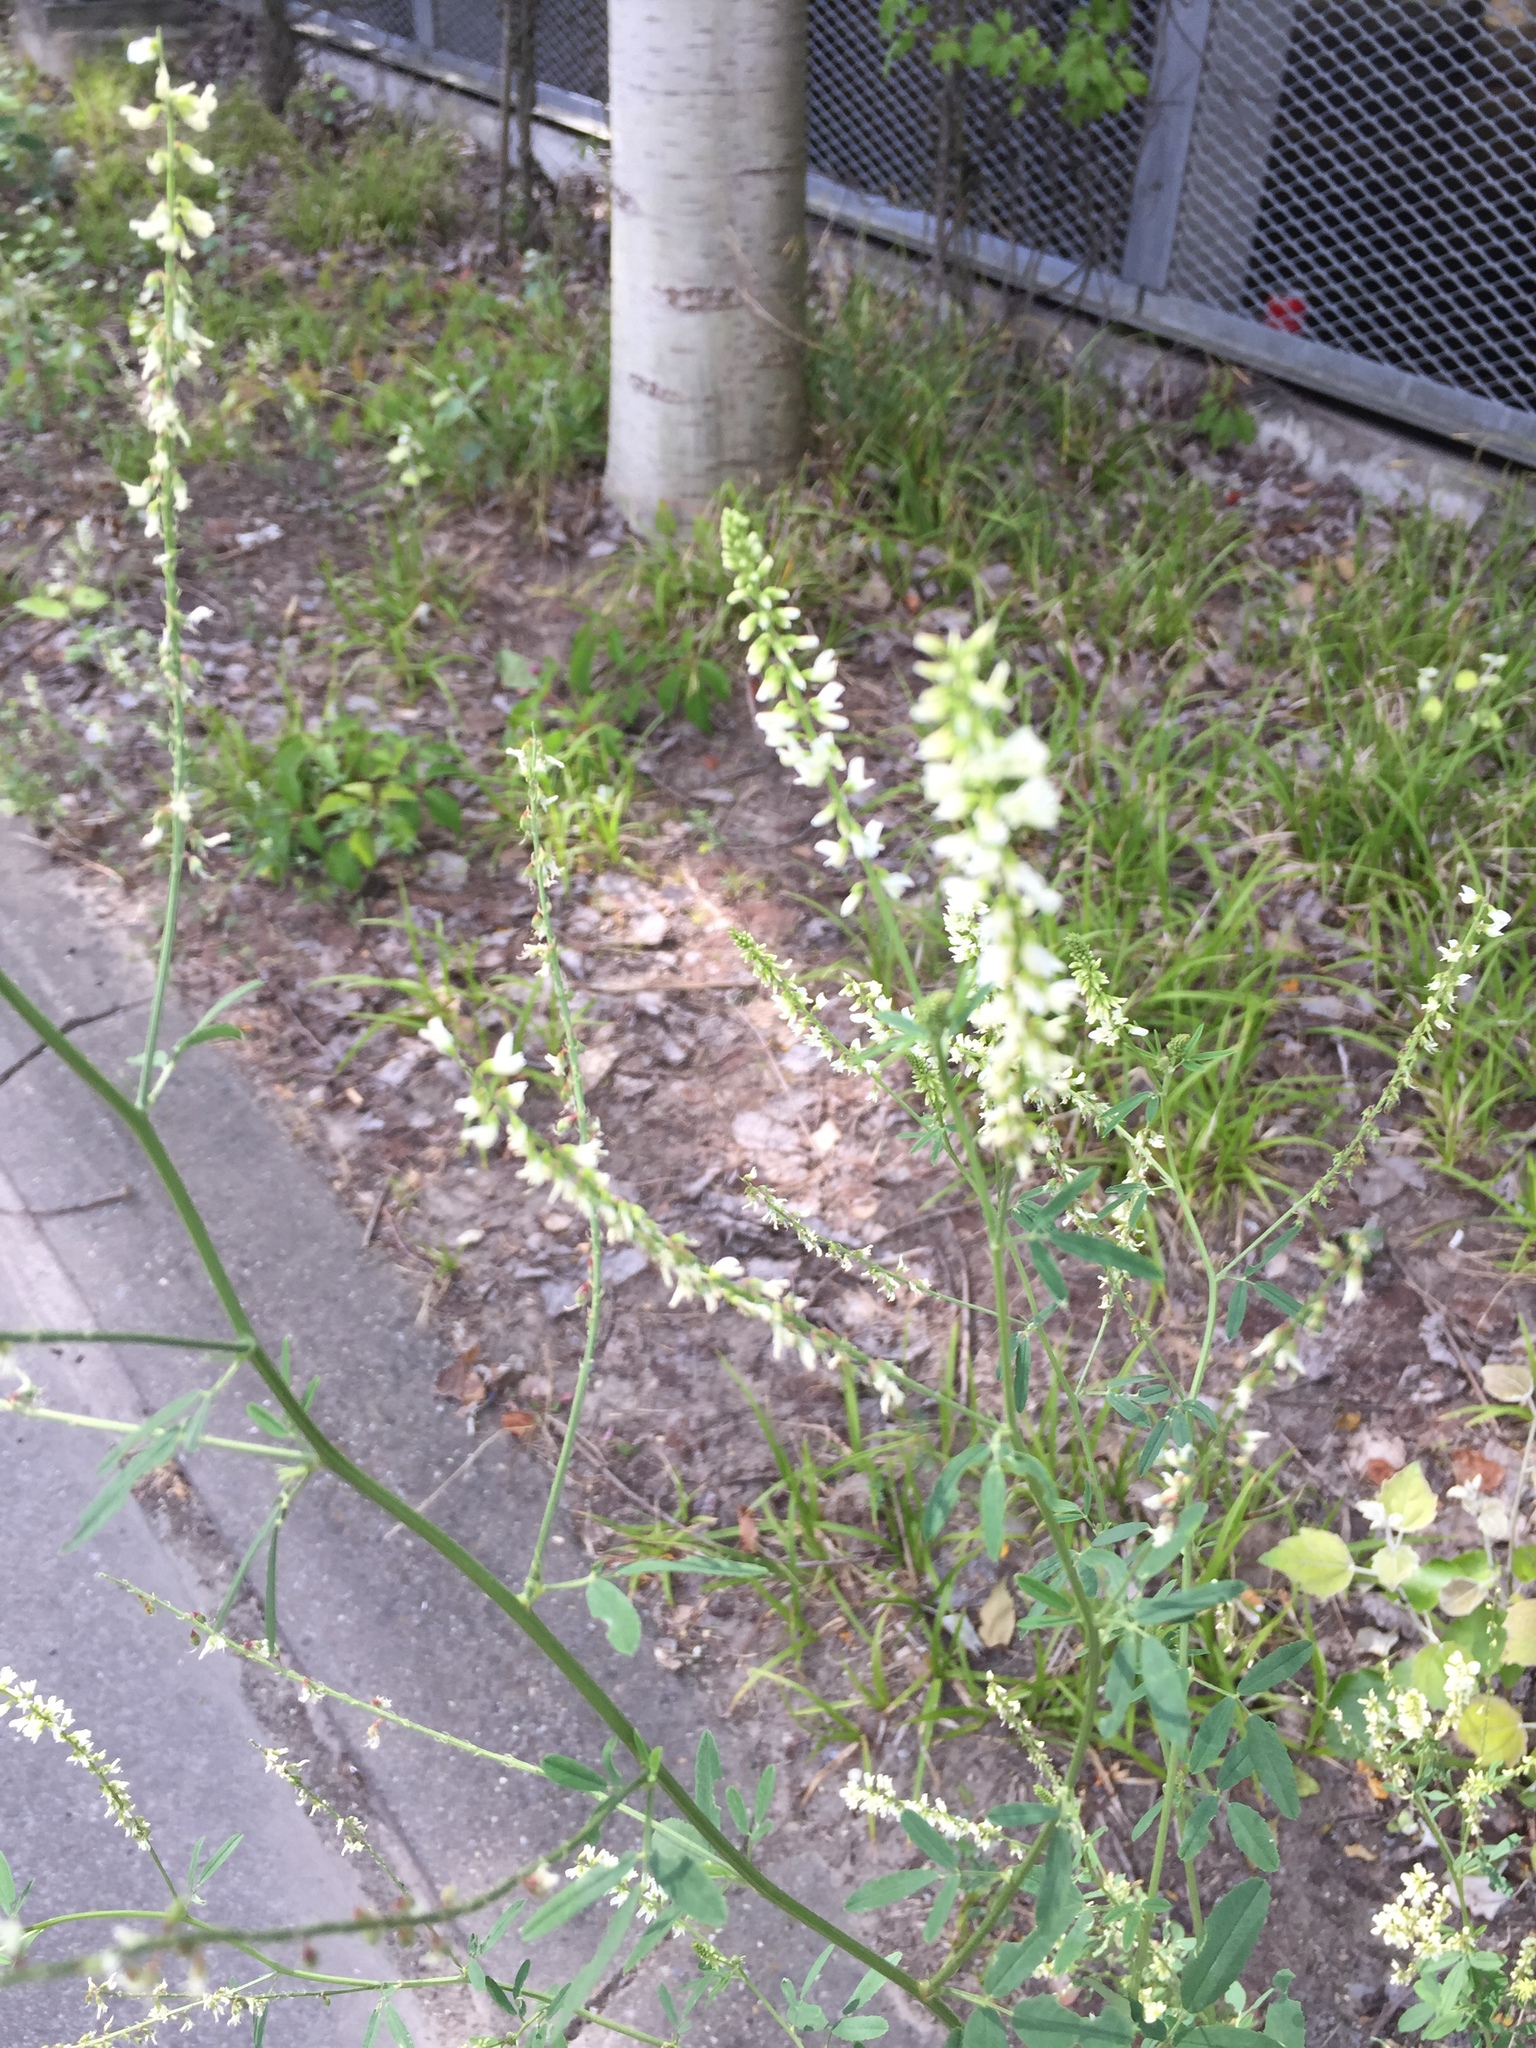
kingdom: Plantae
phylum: Tracheophyta
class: Magnoliopsida
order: Fabales
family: Fabaceae
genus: Melilotus
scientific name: Melilotus albus
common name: White melilot
